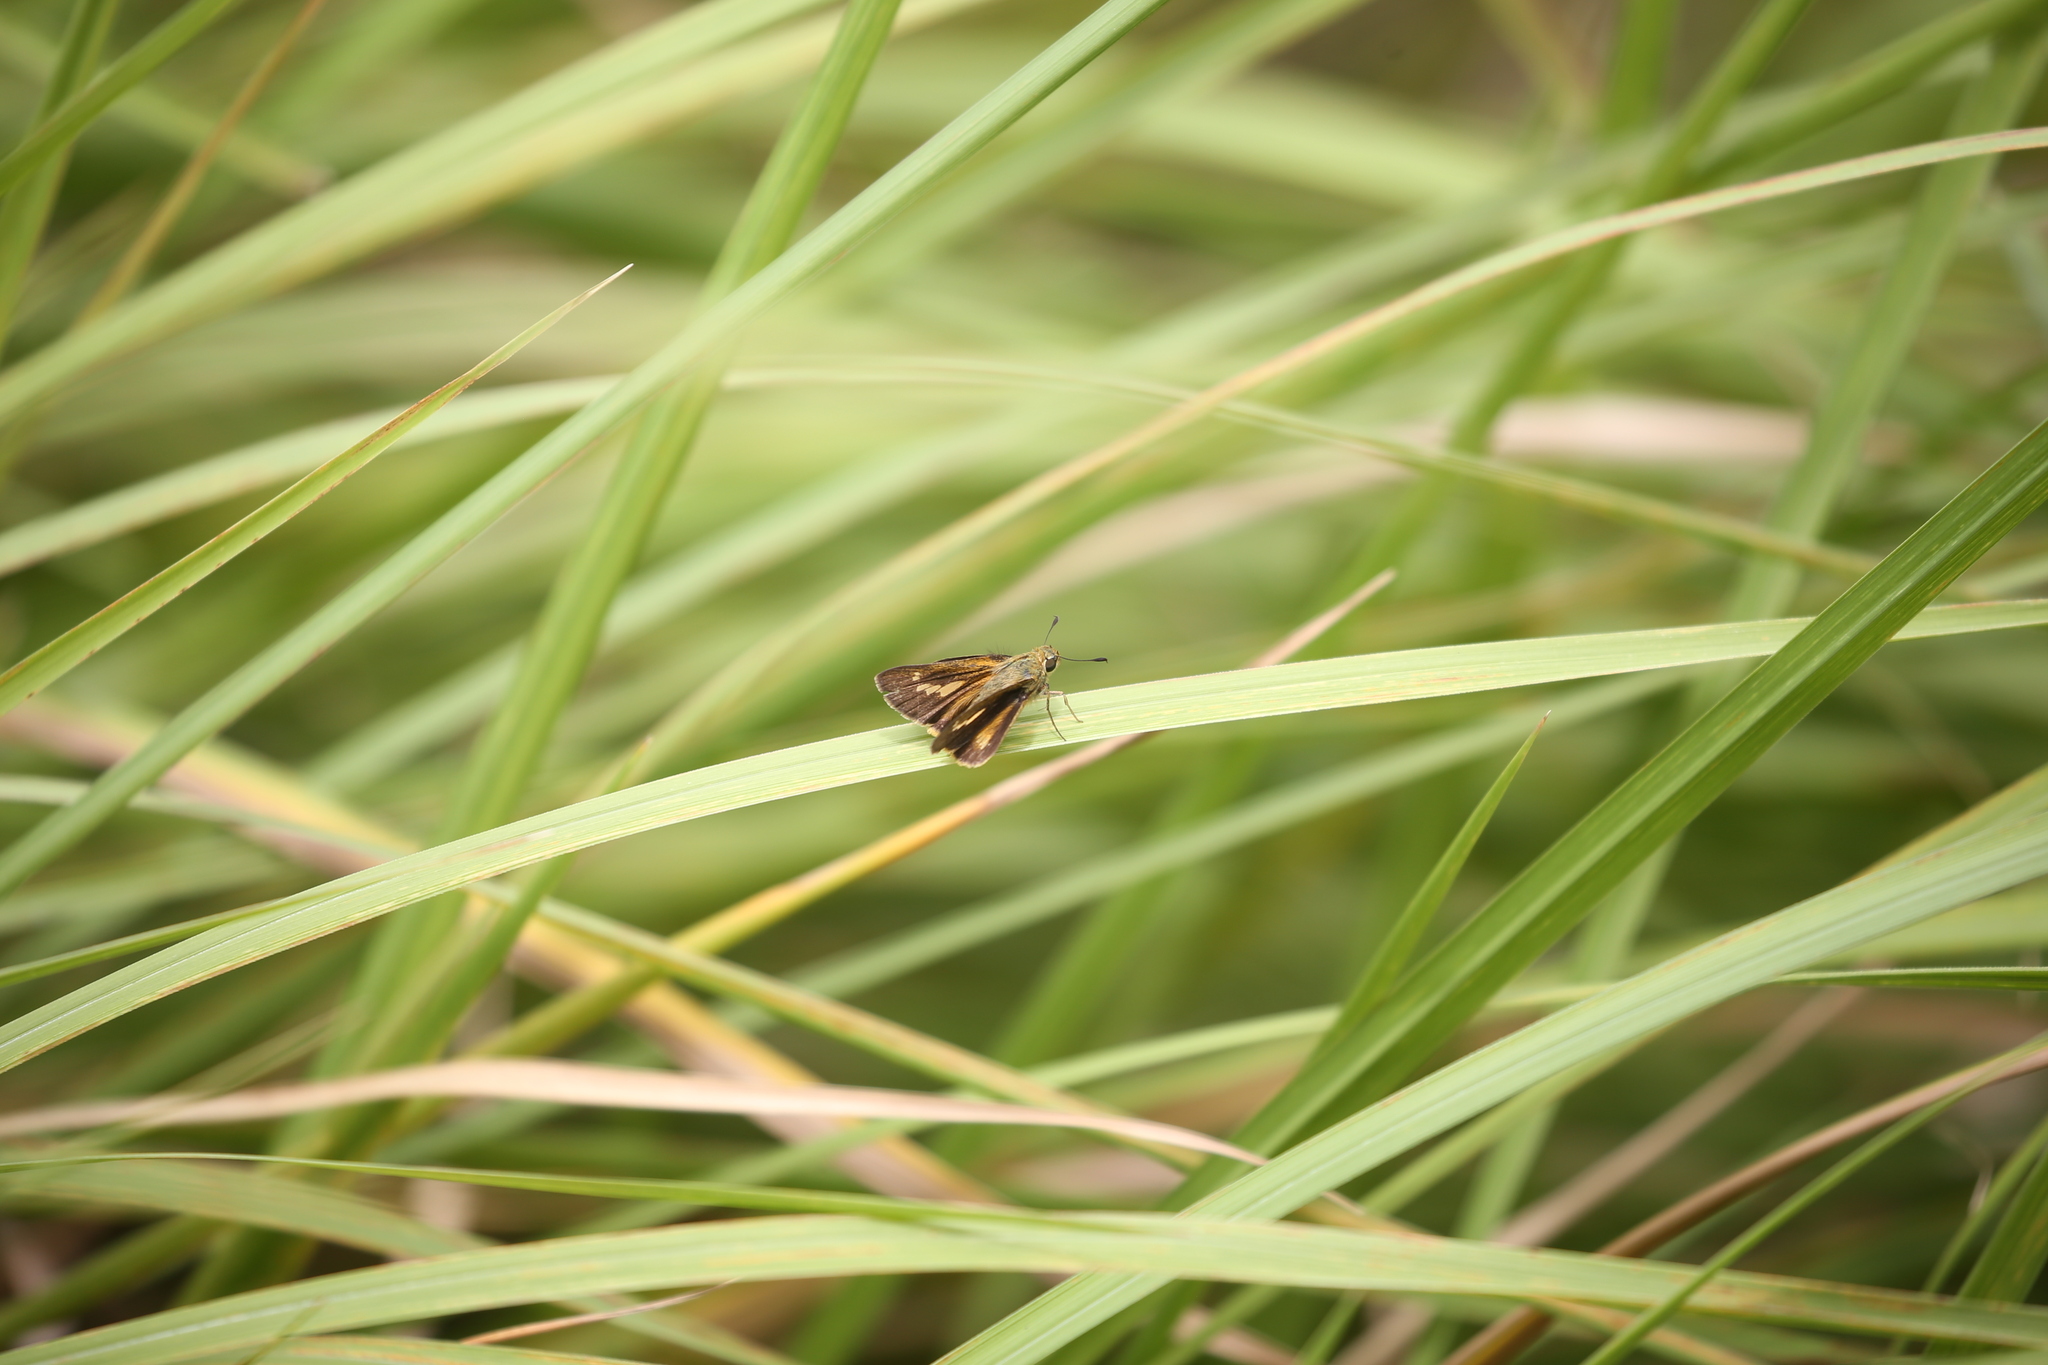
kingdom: Animalia
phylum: Arthropoda
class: Insecta
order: Lepidoptera
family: Hesperiidae
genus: Parnara
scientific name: Parnara amalia
